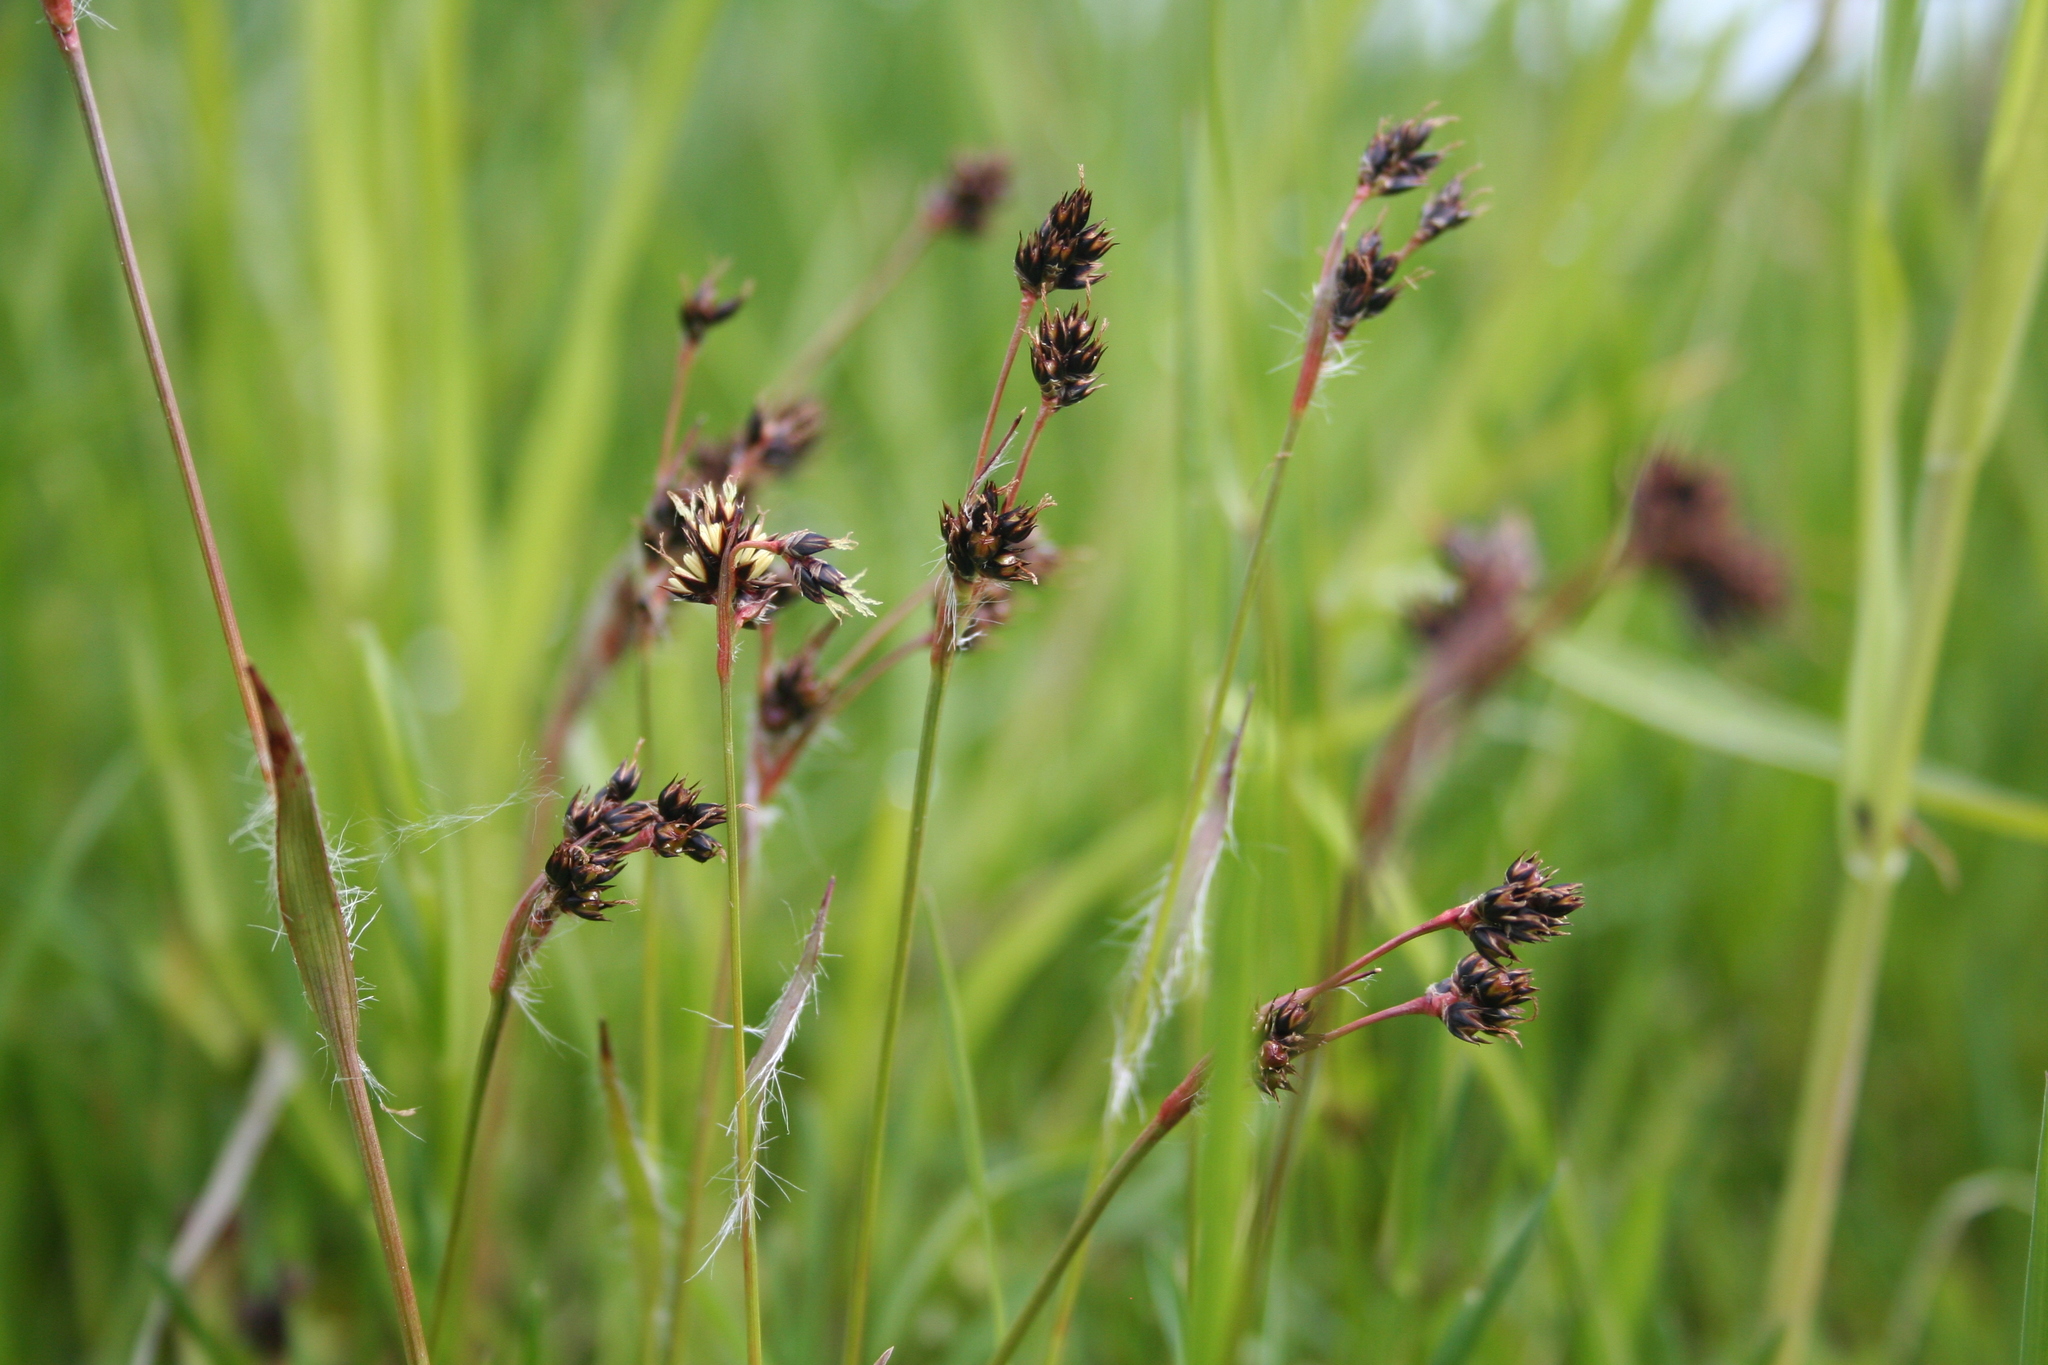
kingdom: Plantae
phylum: Tracheophyta
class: Liliopsida
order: Poales
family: Juncaceae
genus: Luzula
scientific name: Luzula campestris
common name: Field wood-rush
